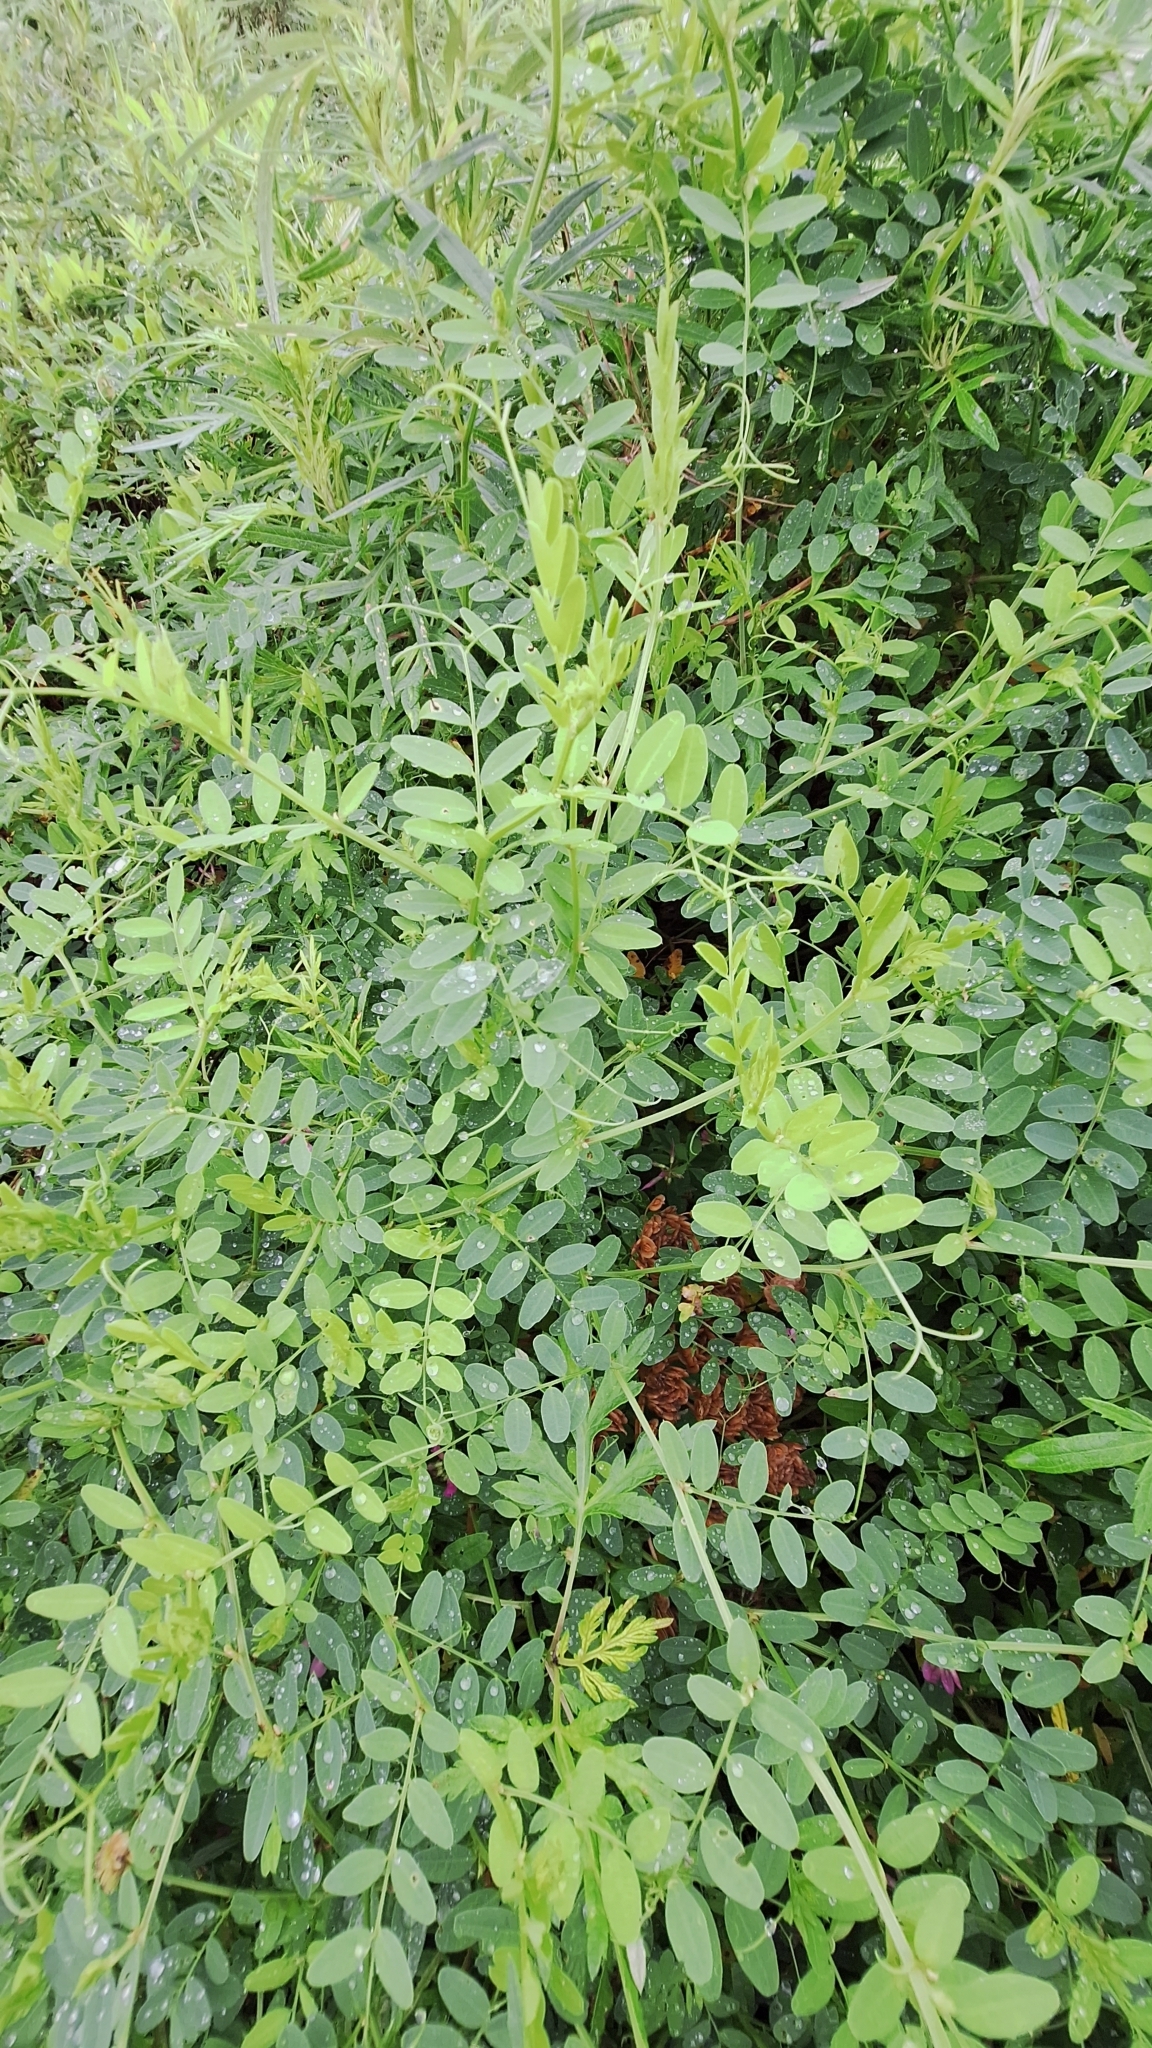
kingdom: Plantae
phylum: Tracheophyta
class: Magnoliopsida
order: Fabales
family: Fabaceae
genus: Vicia
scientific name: Vicia amurensis
